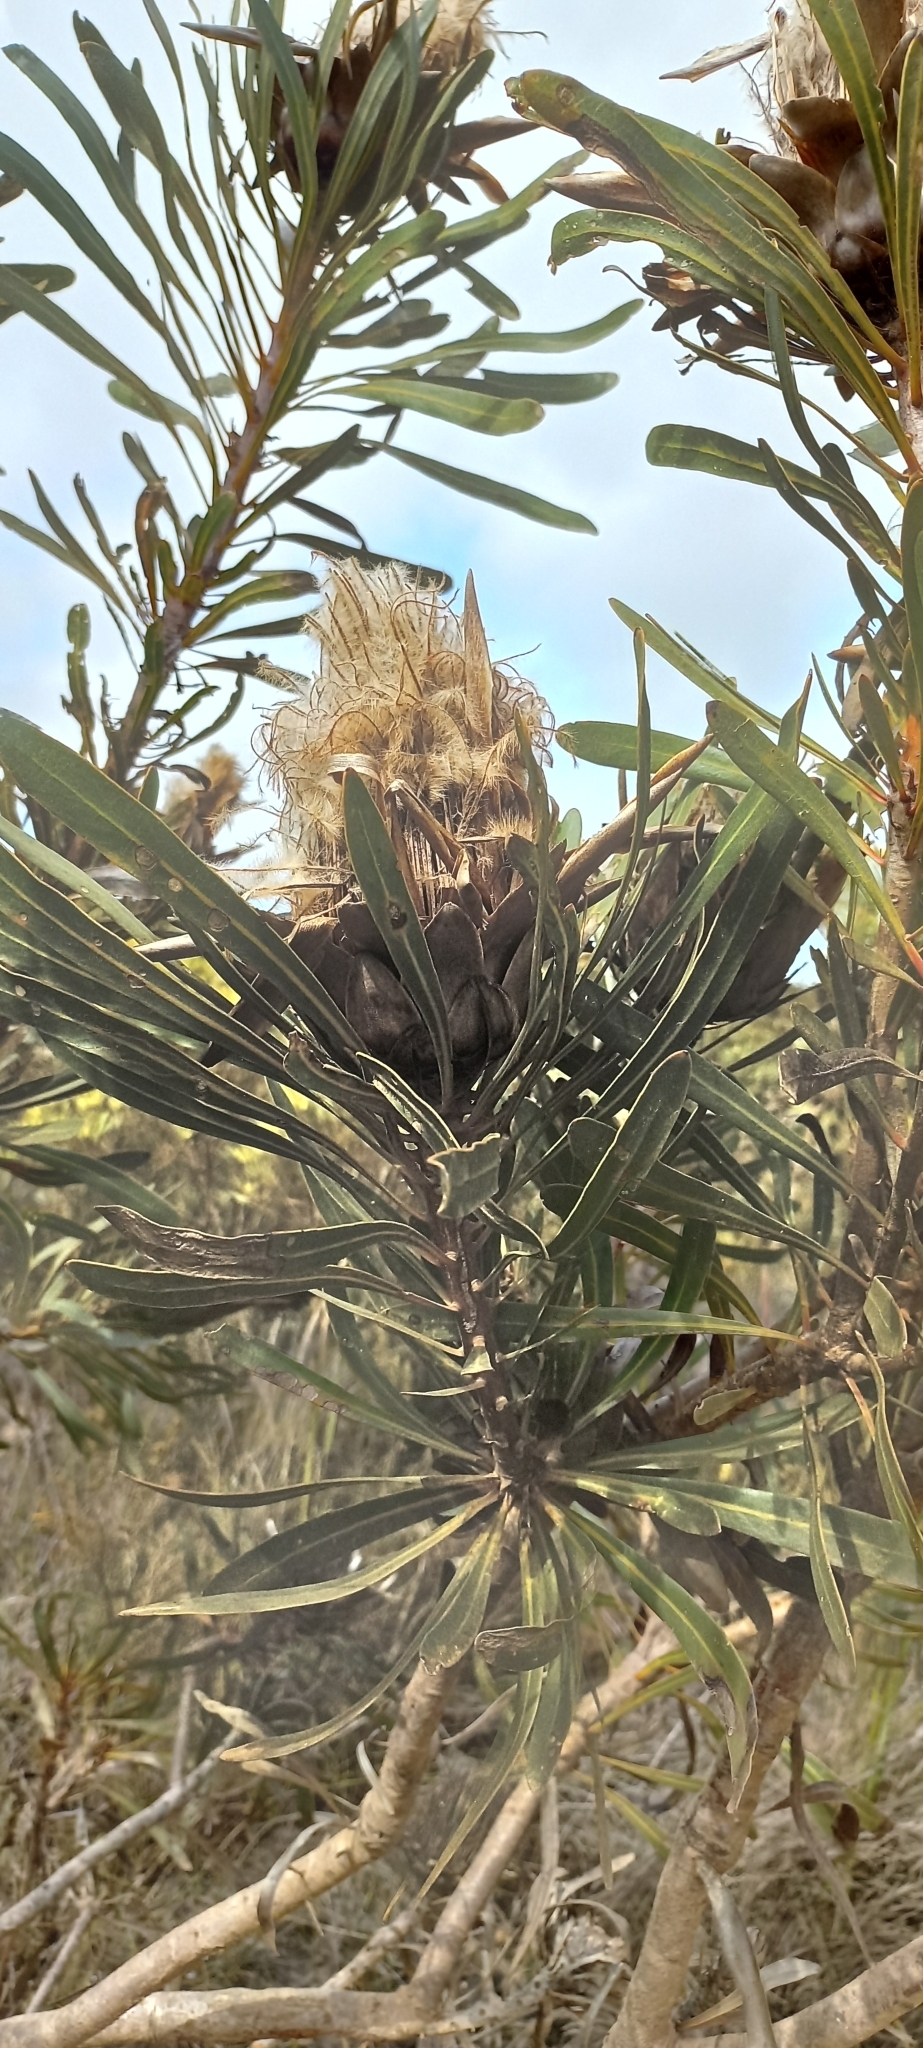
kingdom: Plantae
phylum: Tracheophyta
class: Magnoliopsida
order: Proteales
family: Proteaceae
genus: Protea
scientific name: Protea longifolia
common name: Long-leaf sugarbush
